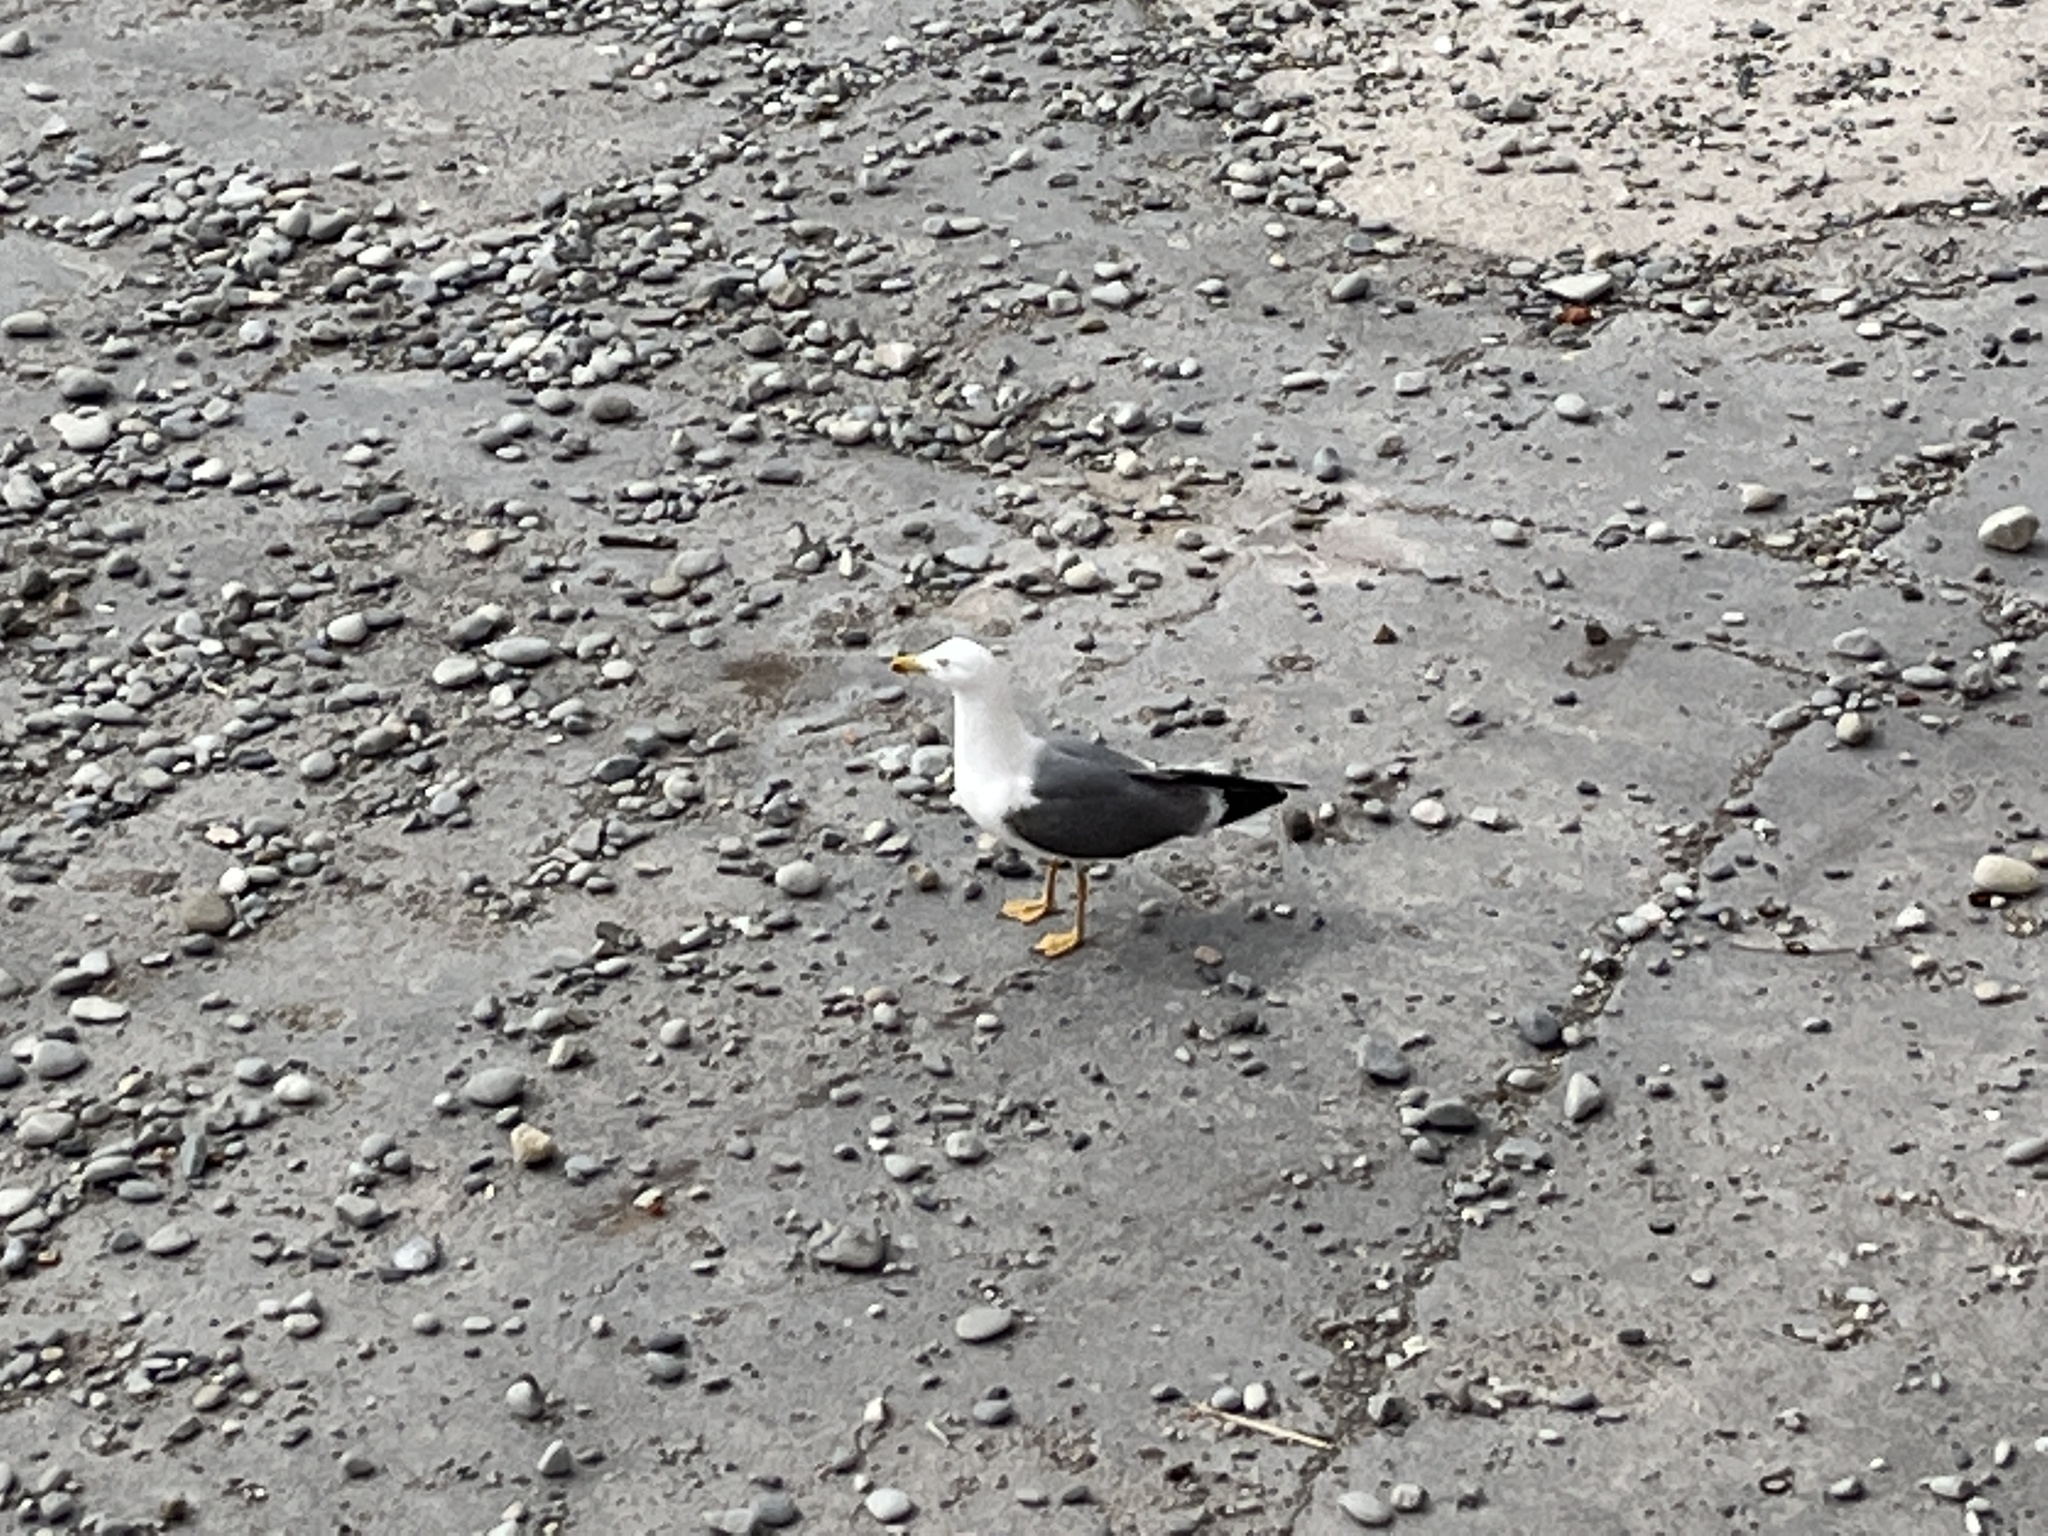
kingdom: Animalia
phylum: Chordata
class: Aves
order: Charadriiformes
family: Laridae
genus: Larus
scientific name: Larus fuscus
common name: Lesser black-backed gull
